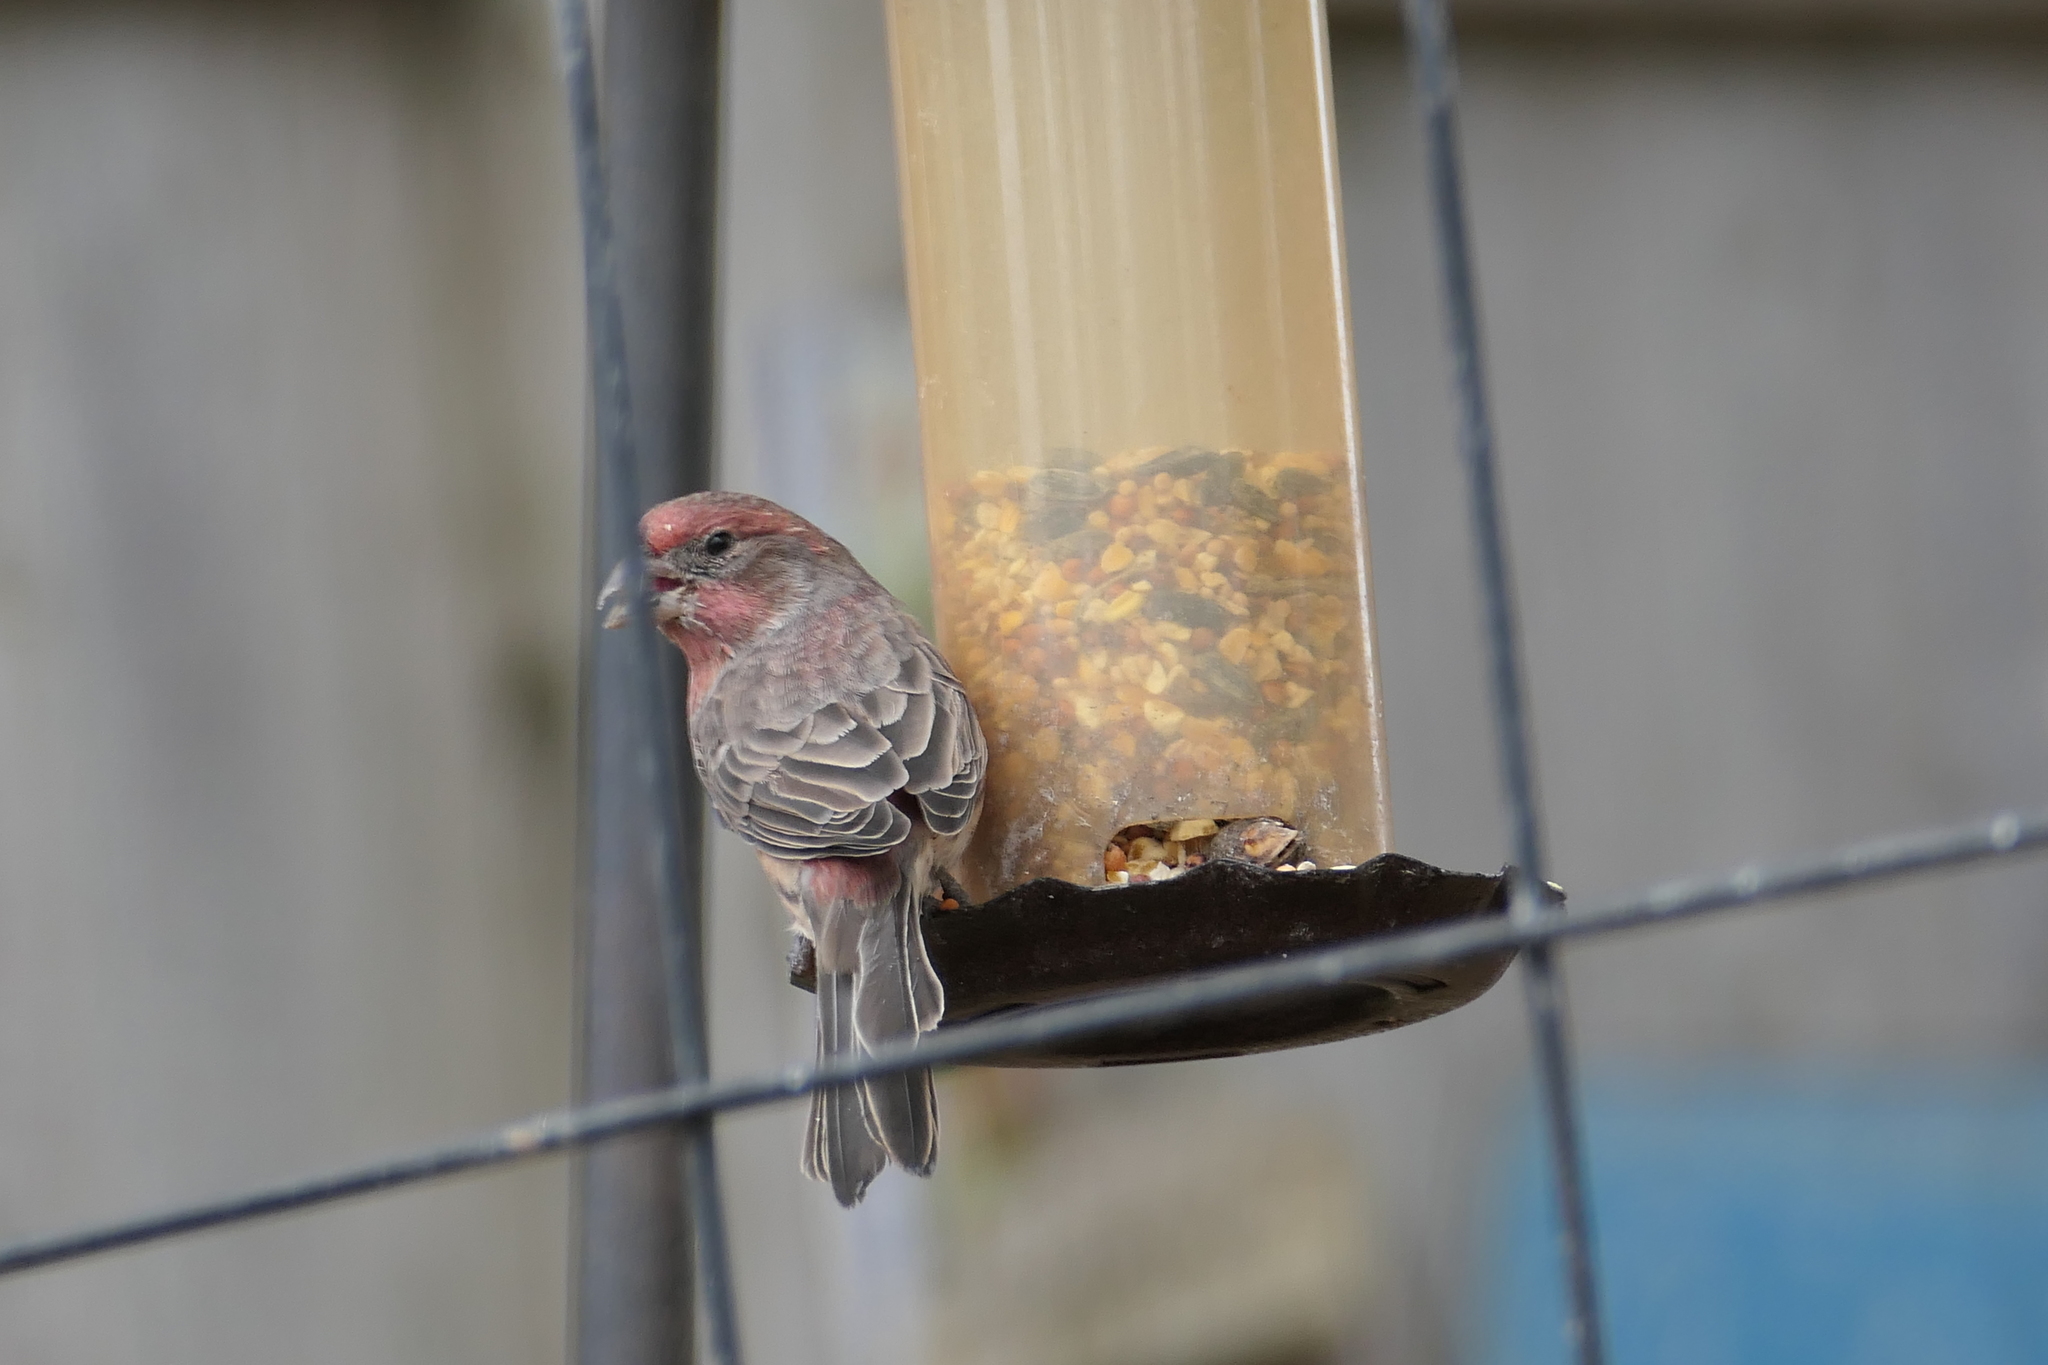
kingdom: Animalia
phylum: Chordata
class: Aves
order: Passeriformes
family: Fringillidae
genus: Haemorhous
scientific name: Haemorhous mexicanus
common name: House finch
